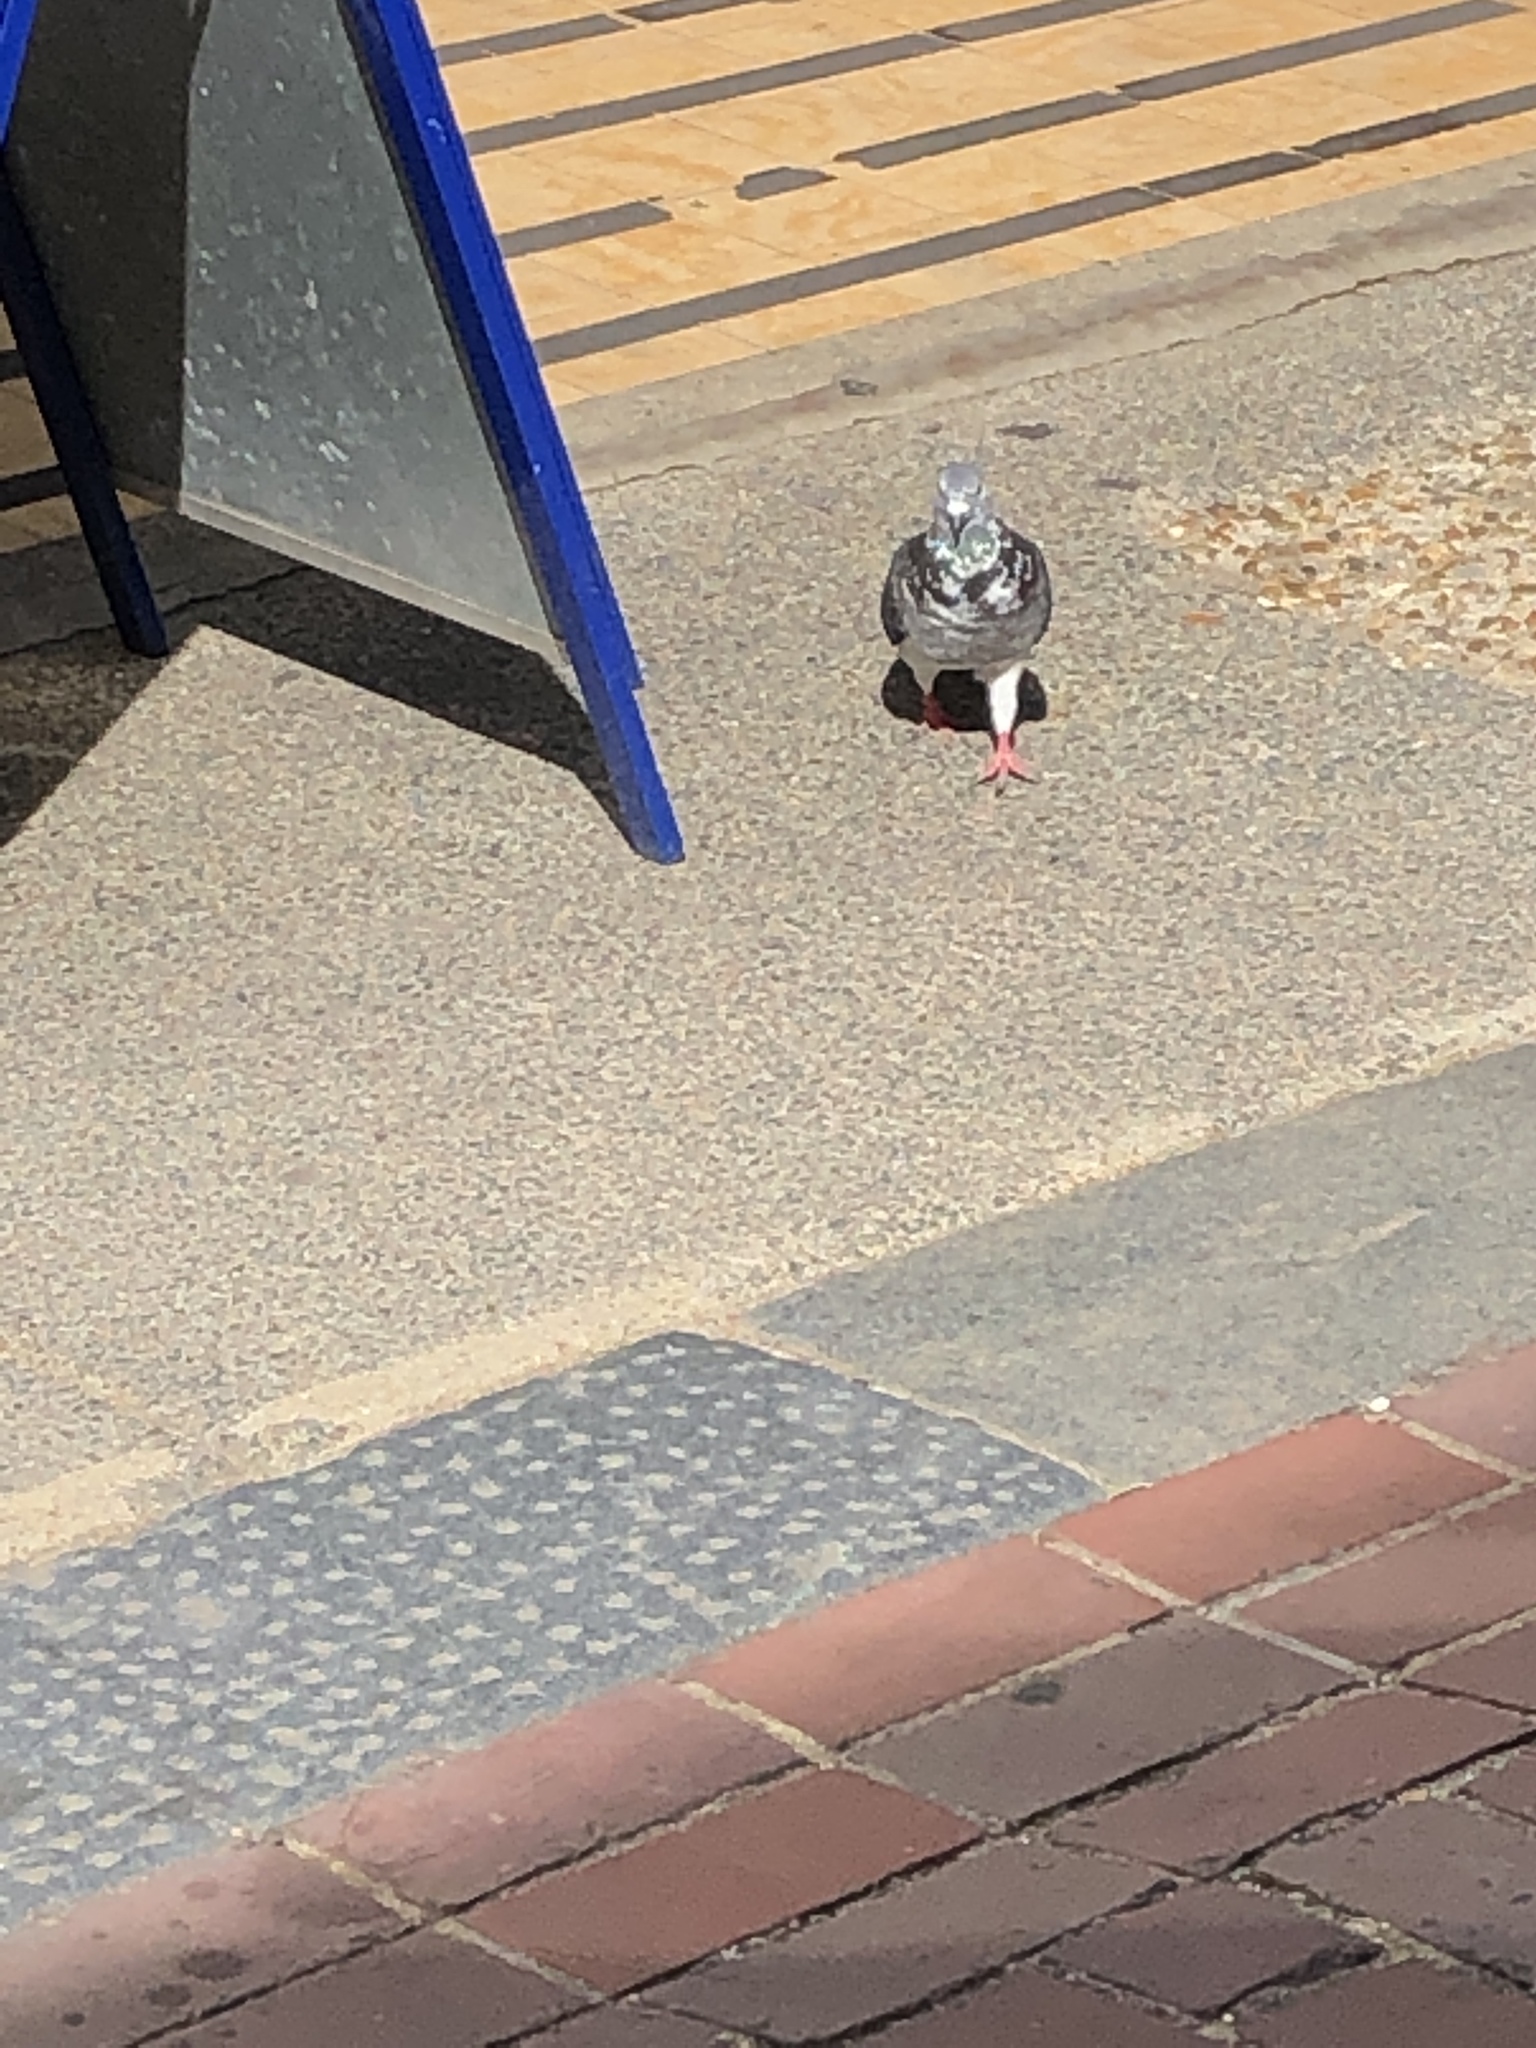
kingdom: Animalia
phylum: Chordata
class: Aves
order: Columbiformes
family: Columbidae
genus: Columba
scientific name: Columba livia
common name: Rock pigeon
